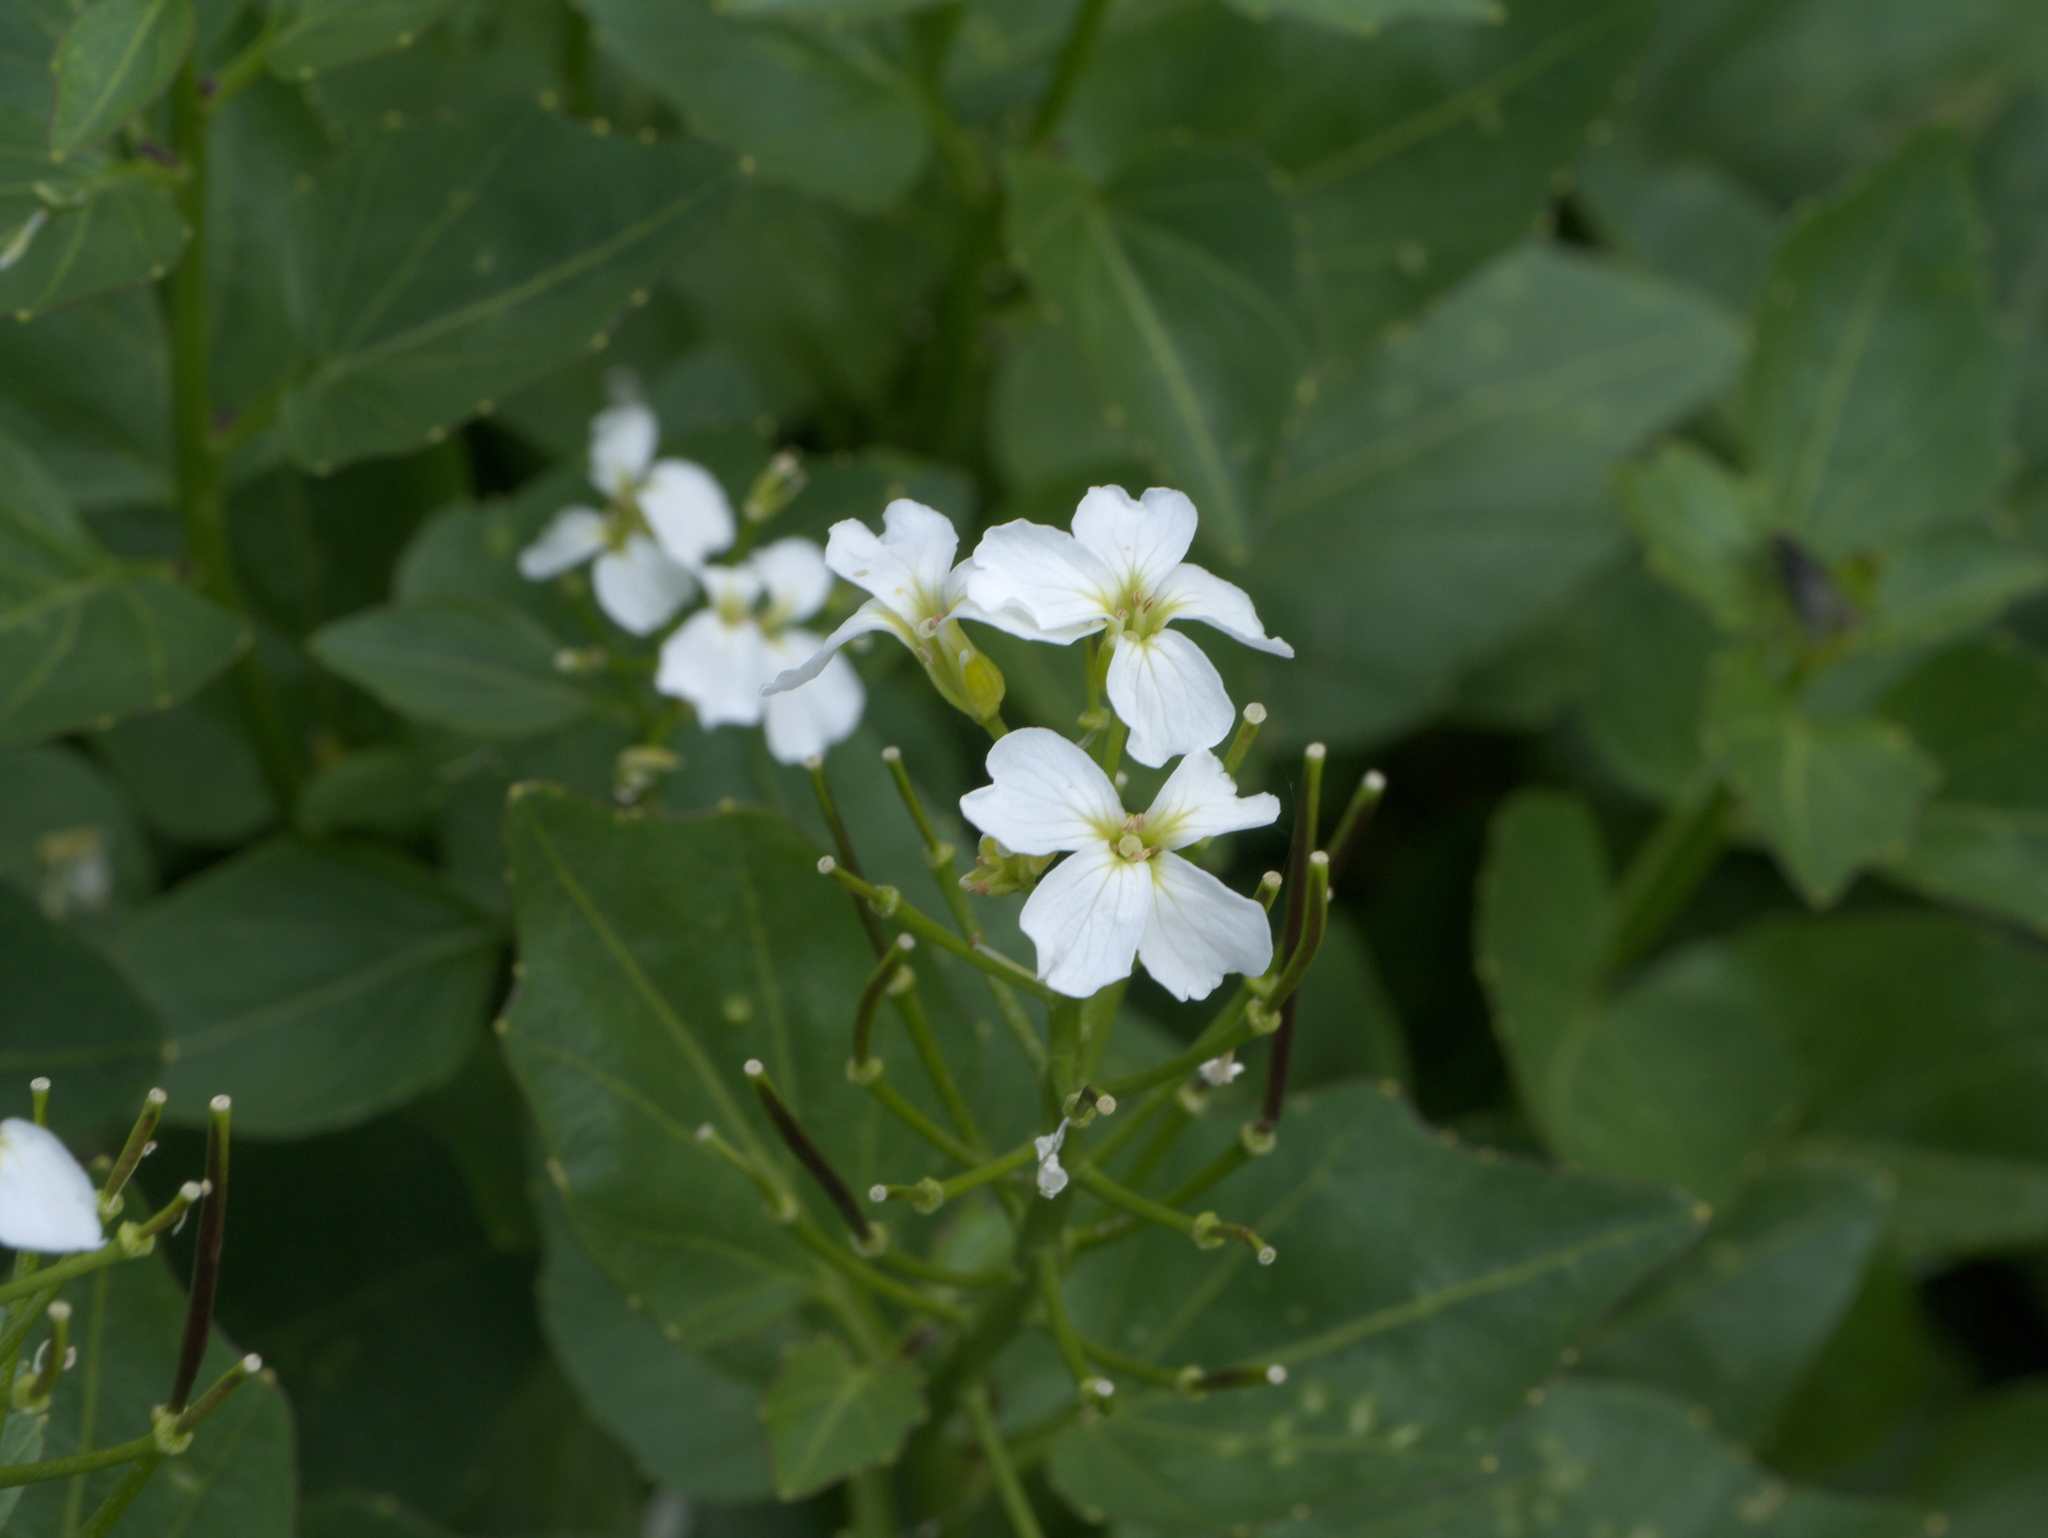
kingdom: Plantae
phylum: Tracheophyta
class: Magnoliopsida
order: Brassicales
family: Brassicaceae
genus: Cardamine
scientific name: Cardamine cordifolia
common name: Heart-leaf bittercress
